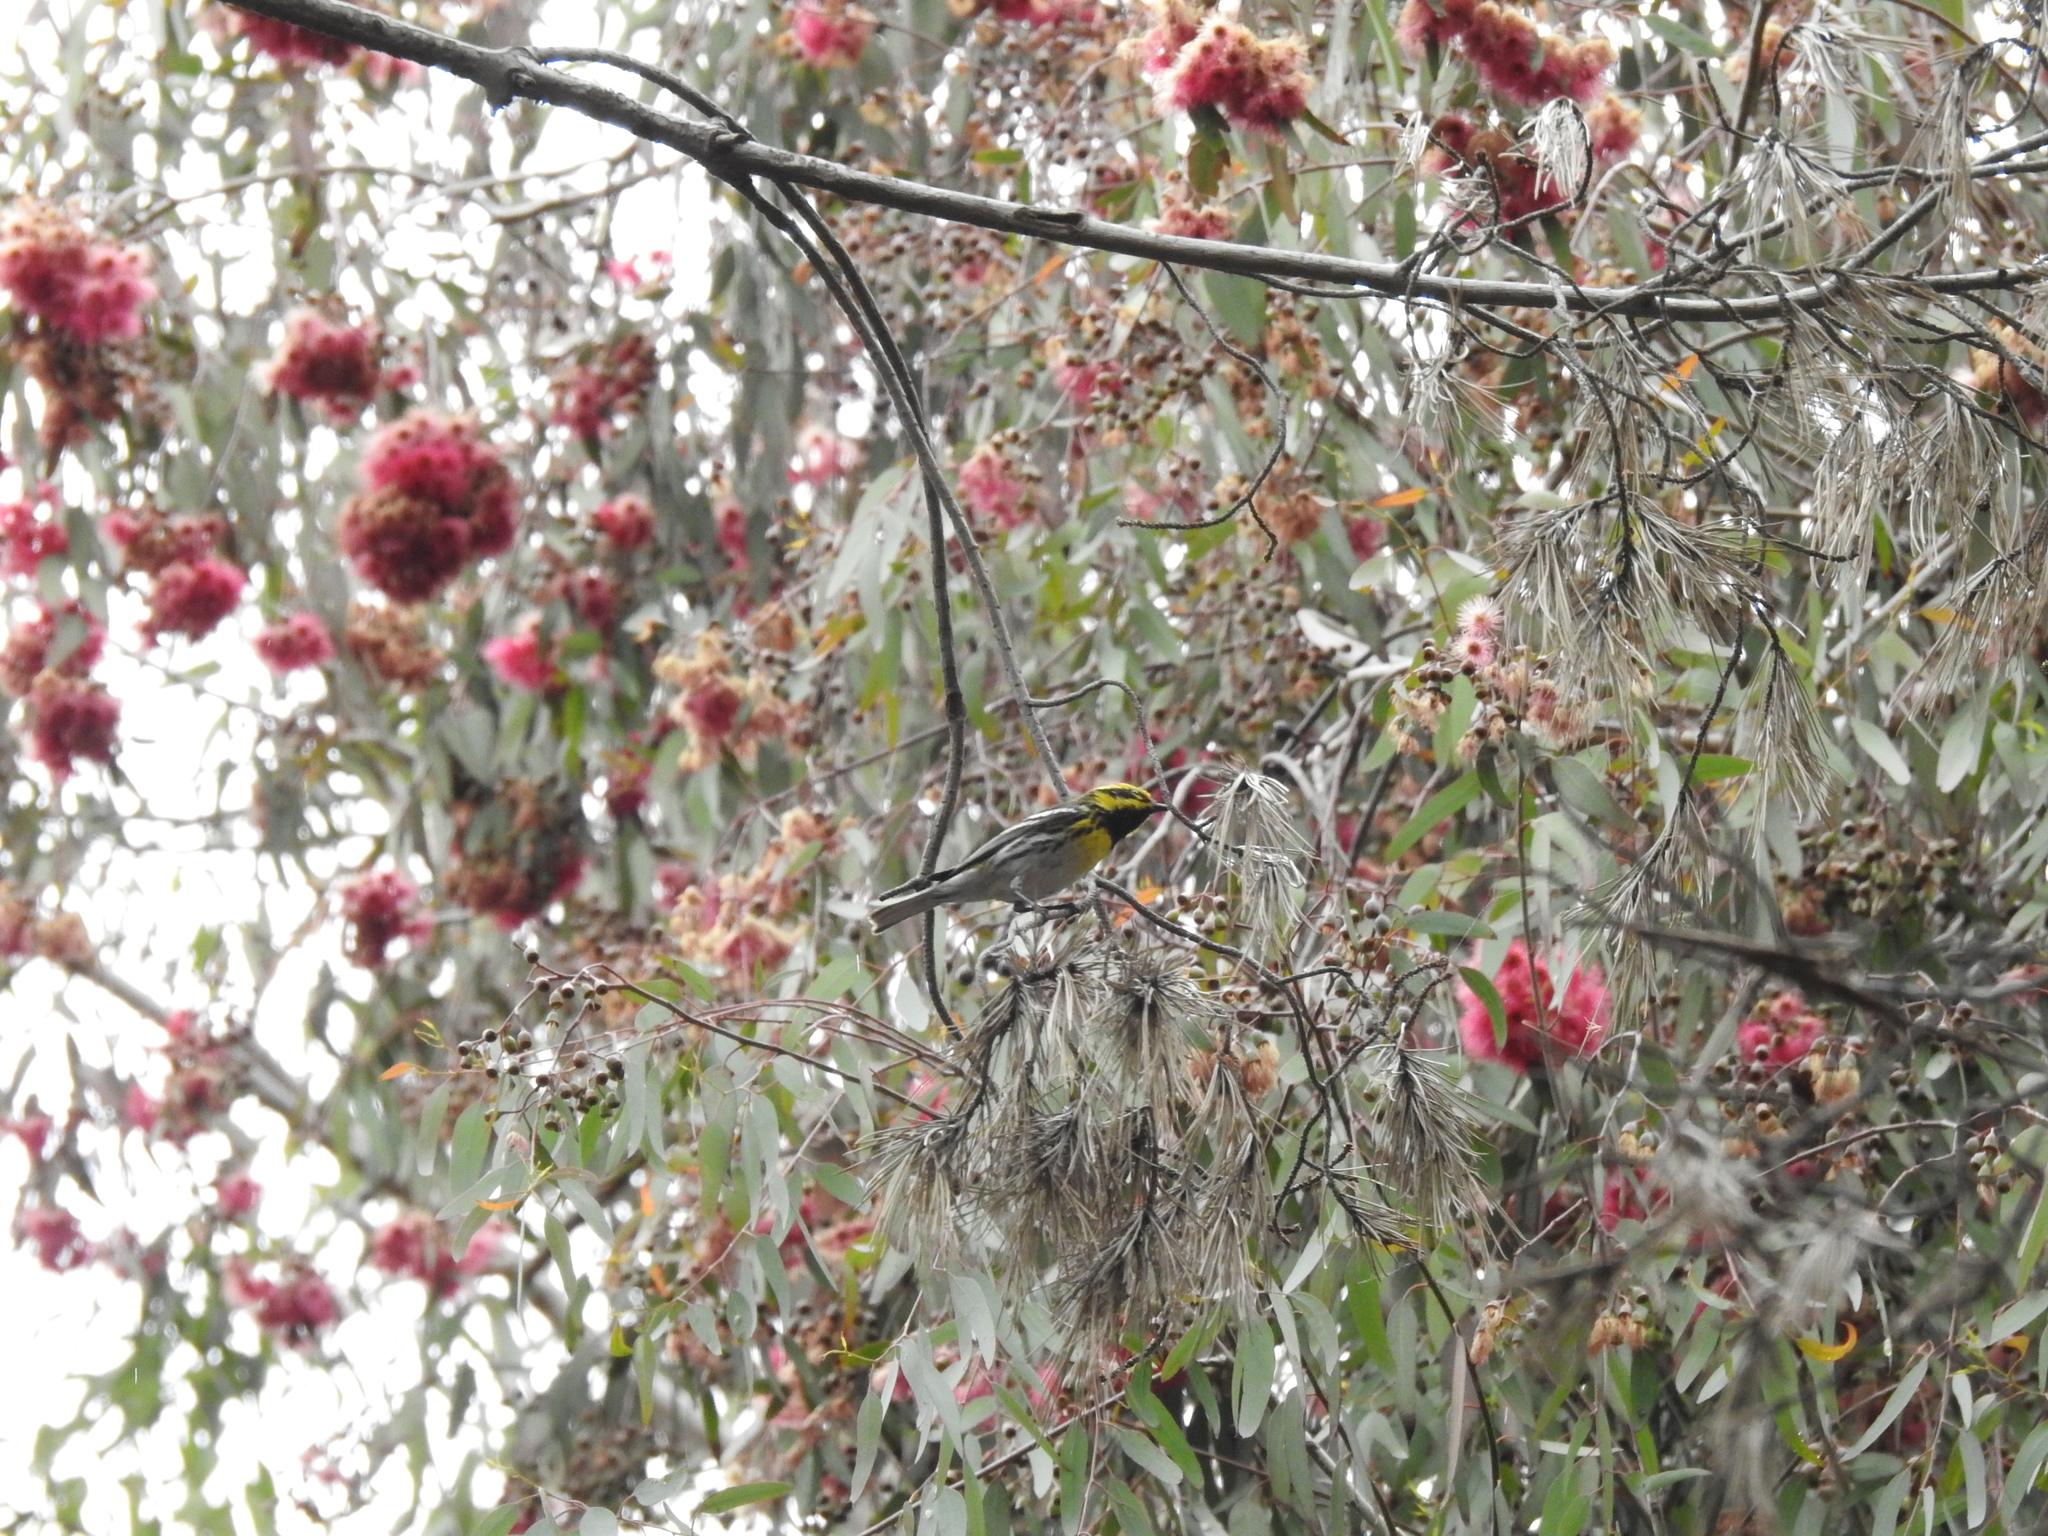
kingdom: Animalia
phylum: Chordata
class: Aves
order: Passeriformes
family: Parulidae
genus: Setophaga
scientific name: Setophaga townsendi
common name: Townsend's warbler
